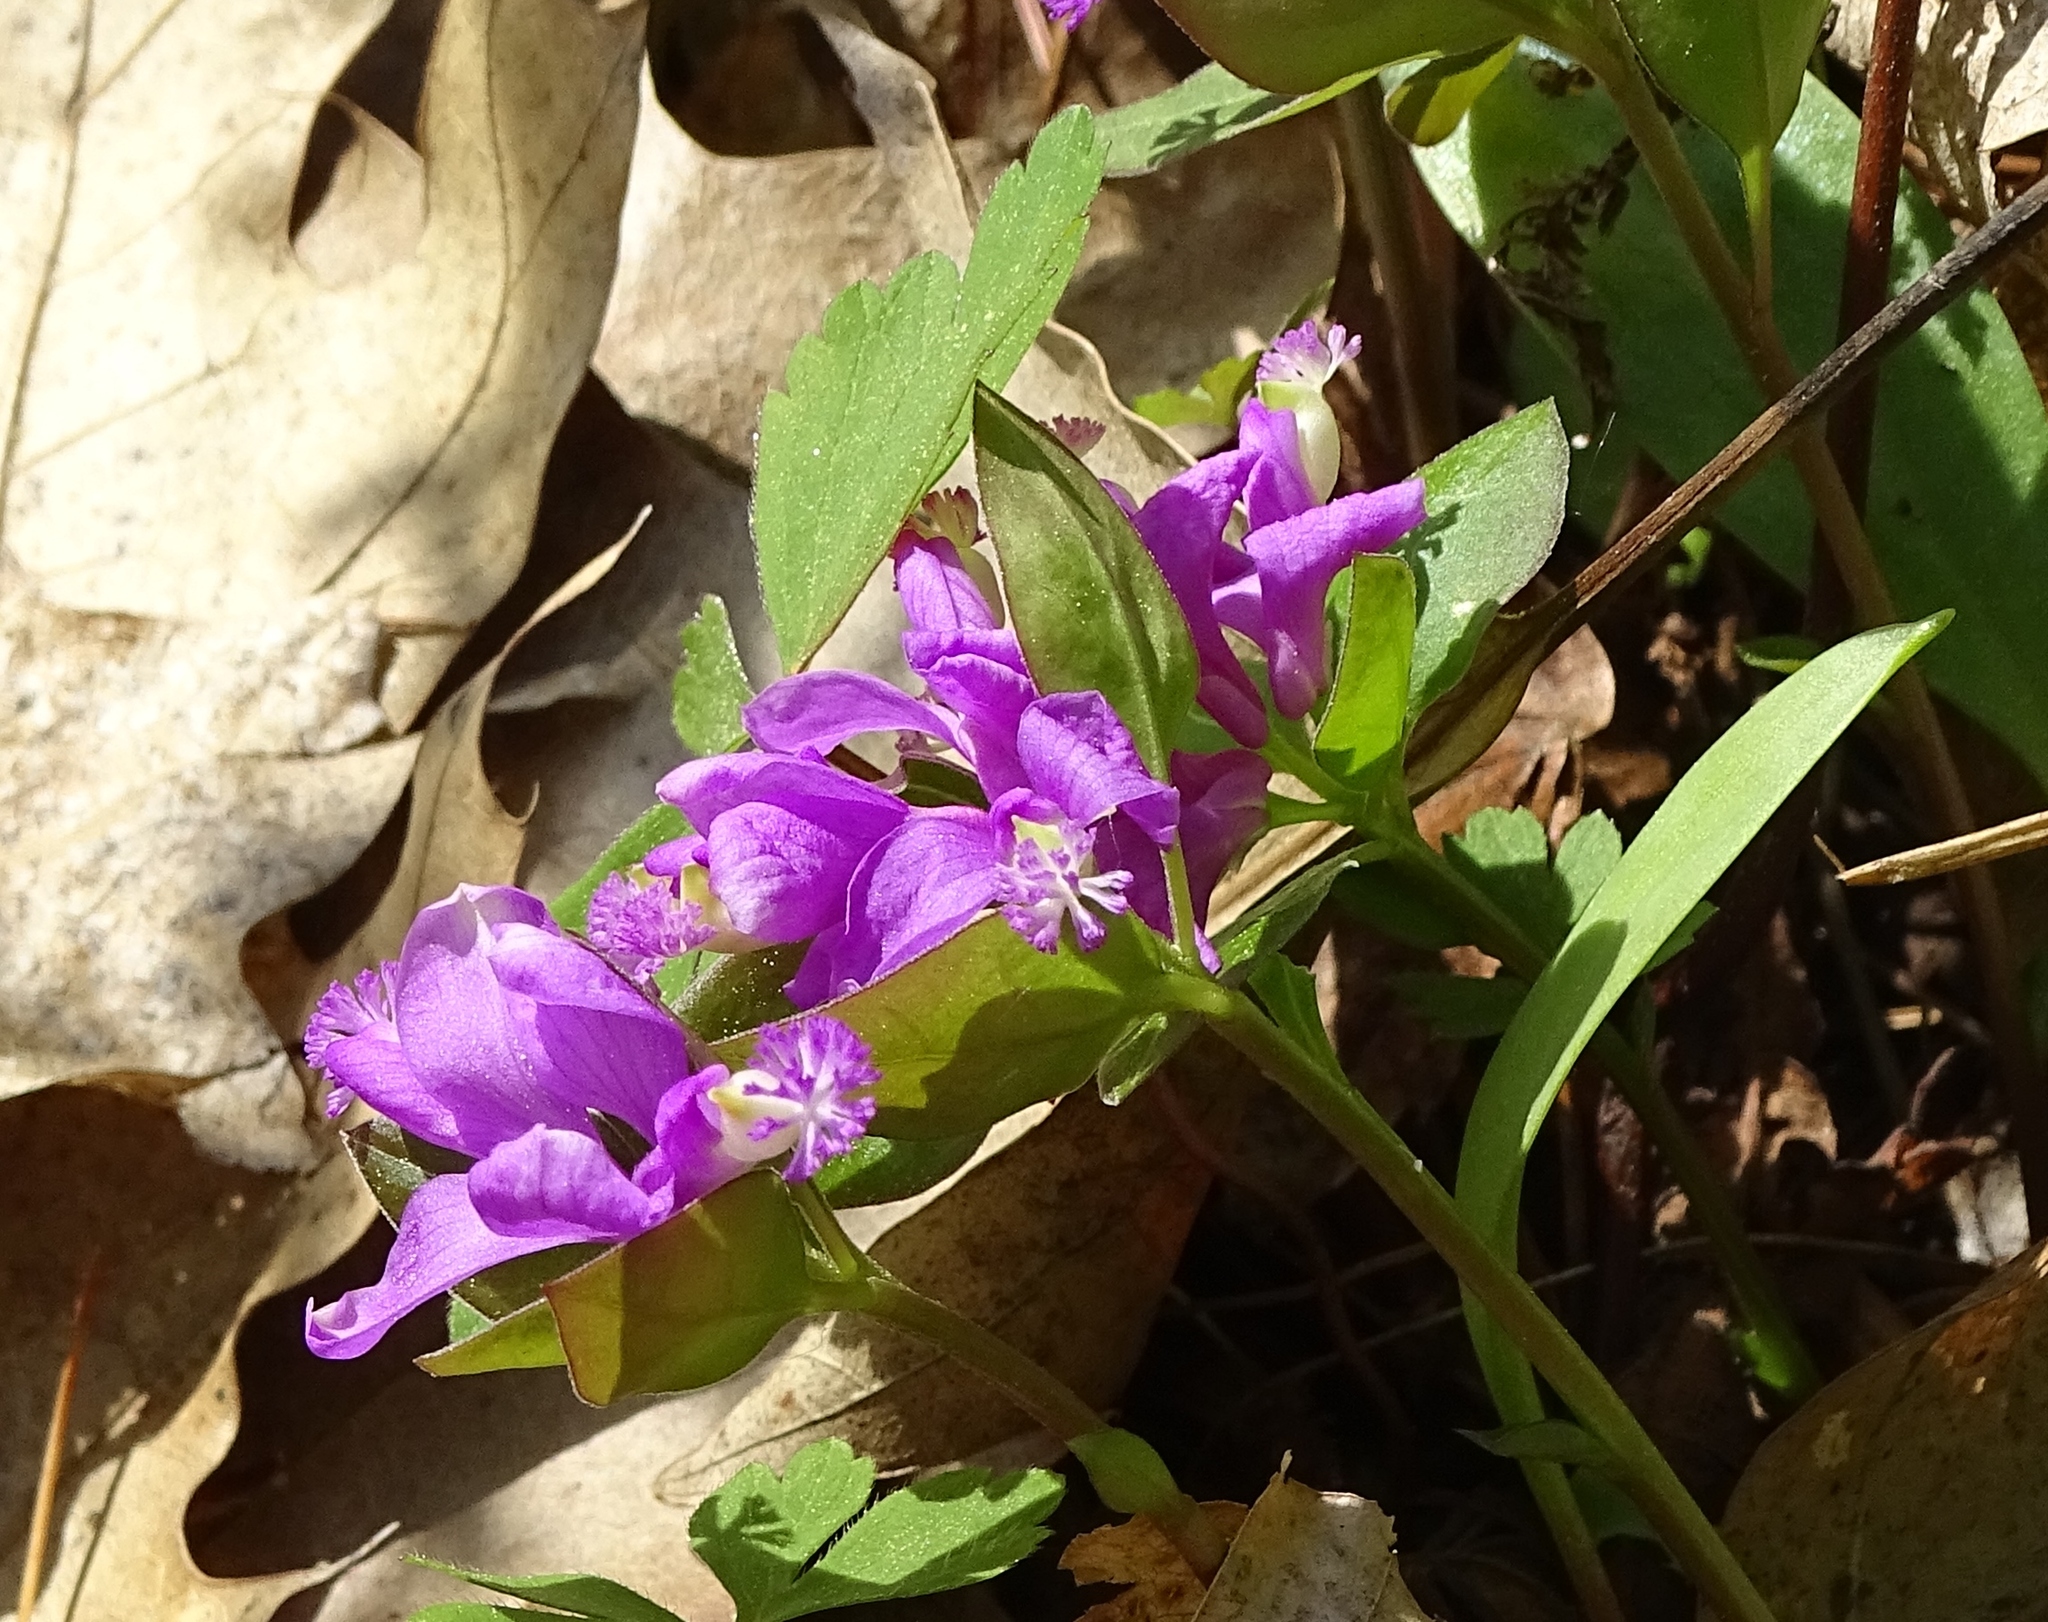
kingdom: Plantae
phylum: Tracheophyta
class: Magnoliopsida
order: Fabales
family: Polygalaceae
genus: Polygaloides
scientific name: Polygaloides paucifolia
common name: Bird-on-the-wing
